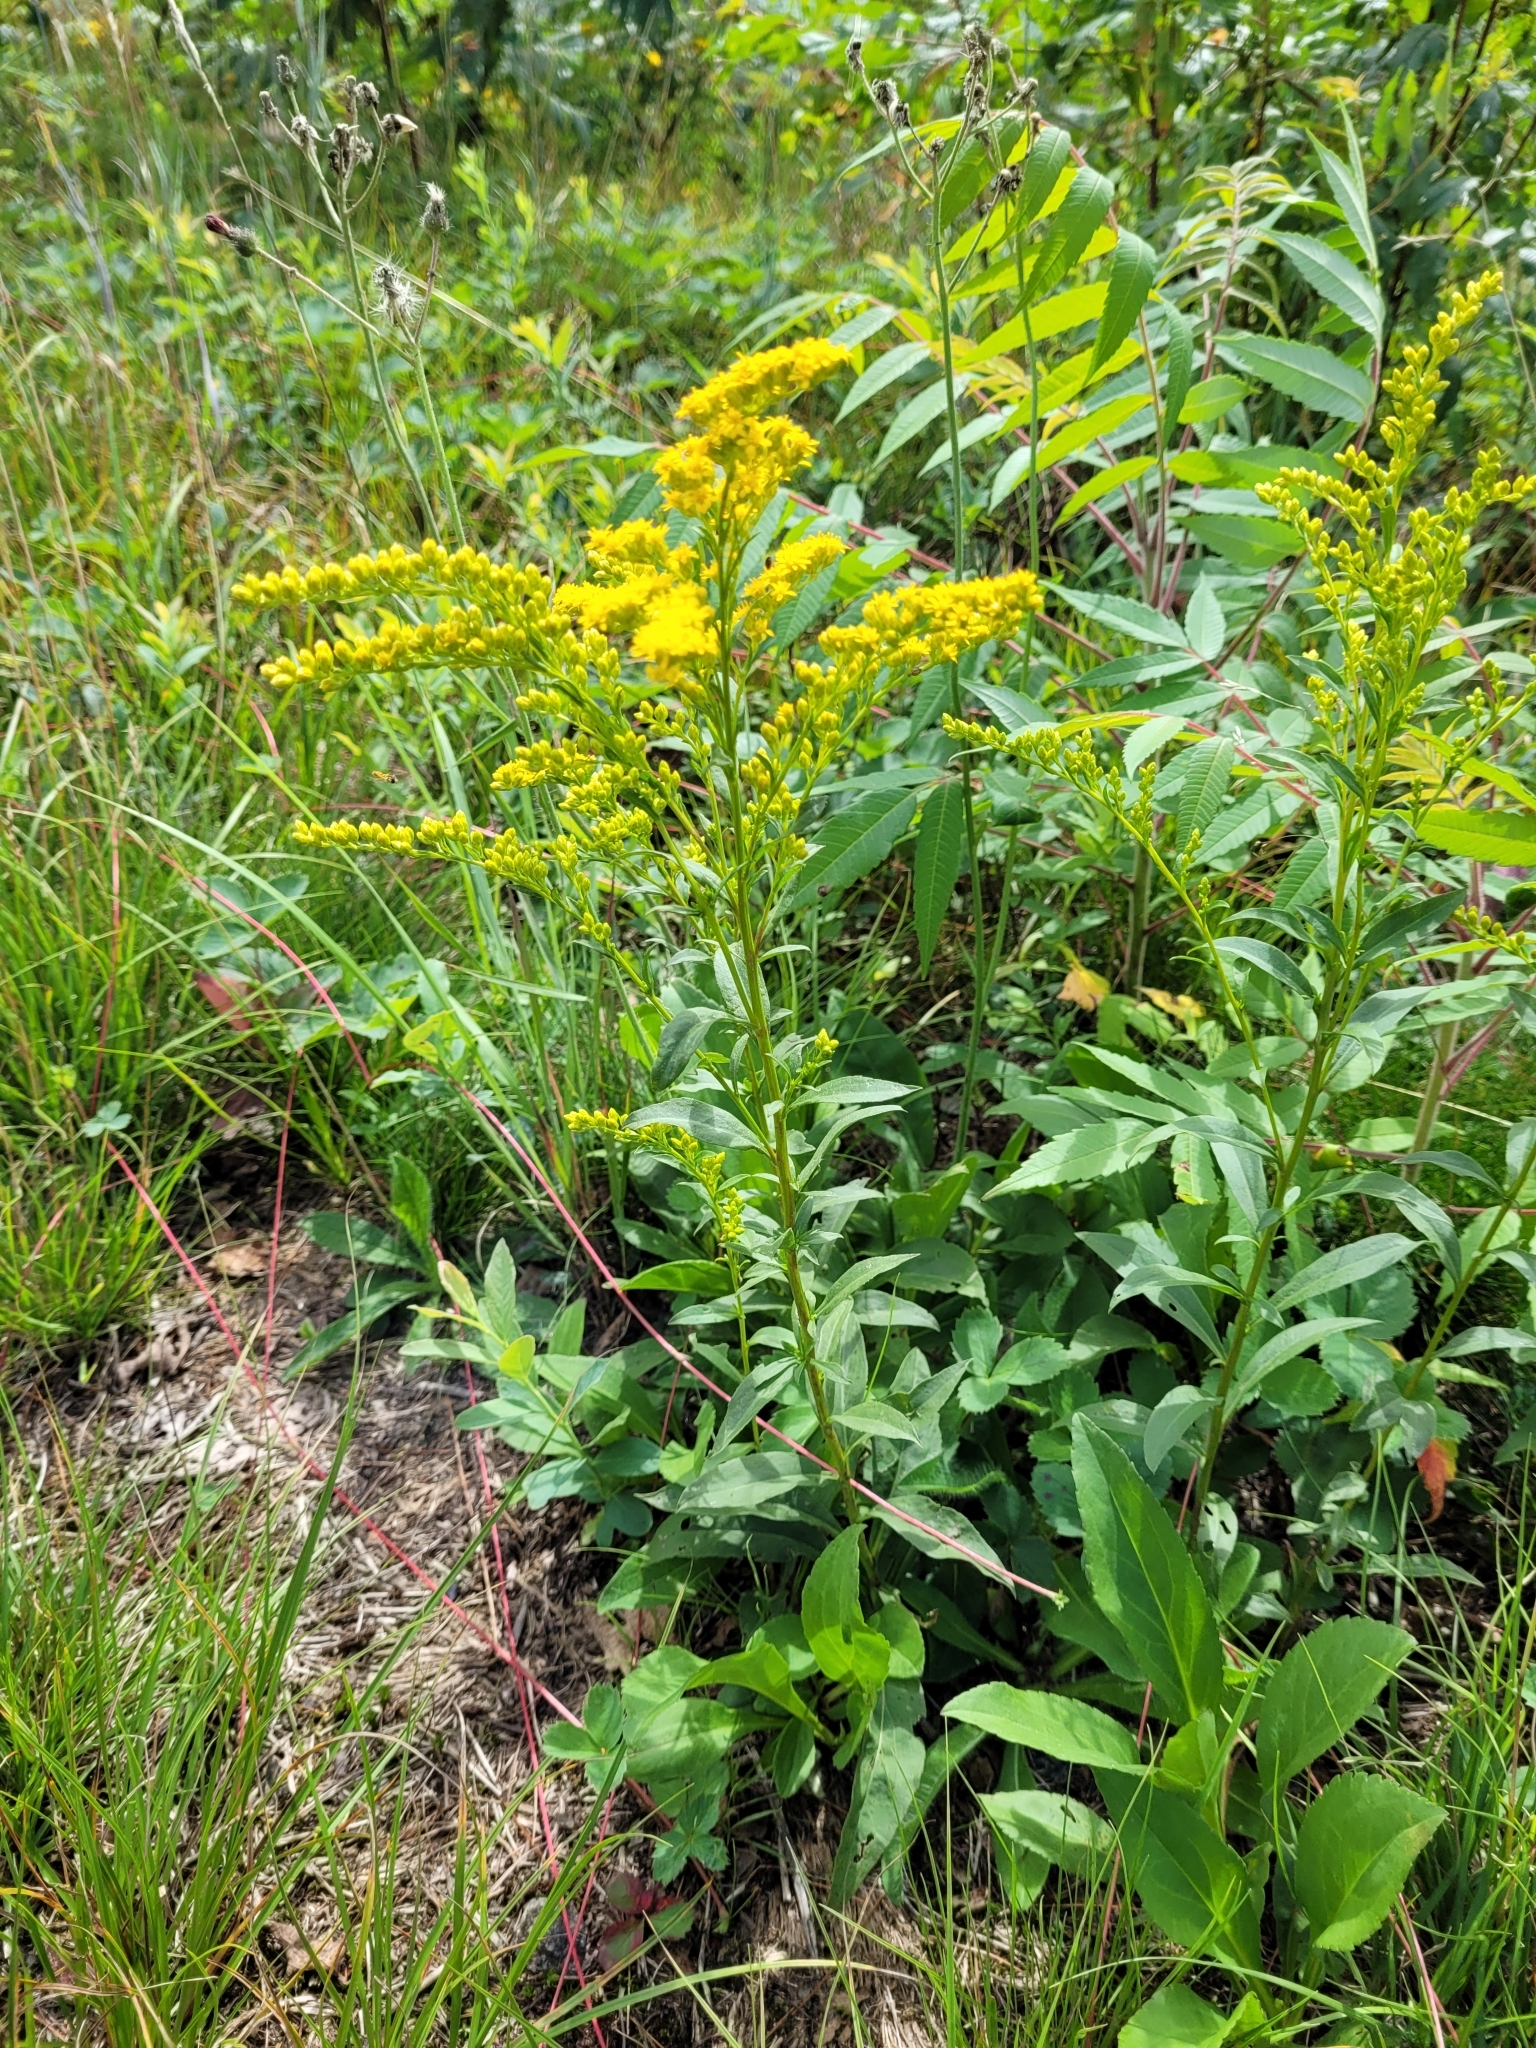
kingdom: Plantae
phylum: Tracheophyta
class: Magnoliopsida
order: Asterales
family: Asteraceae
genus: Solidago
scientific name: Solidago juncea
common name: Early goldenrod
